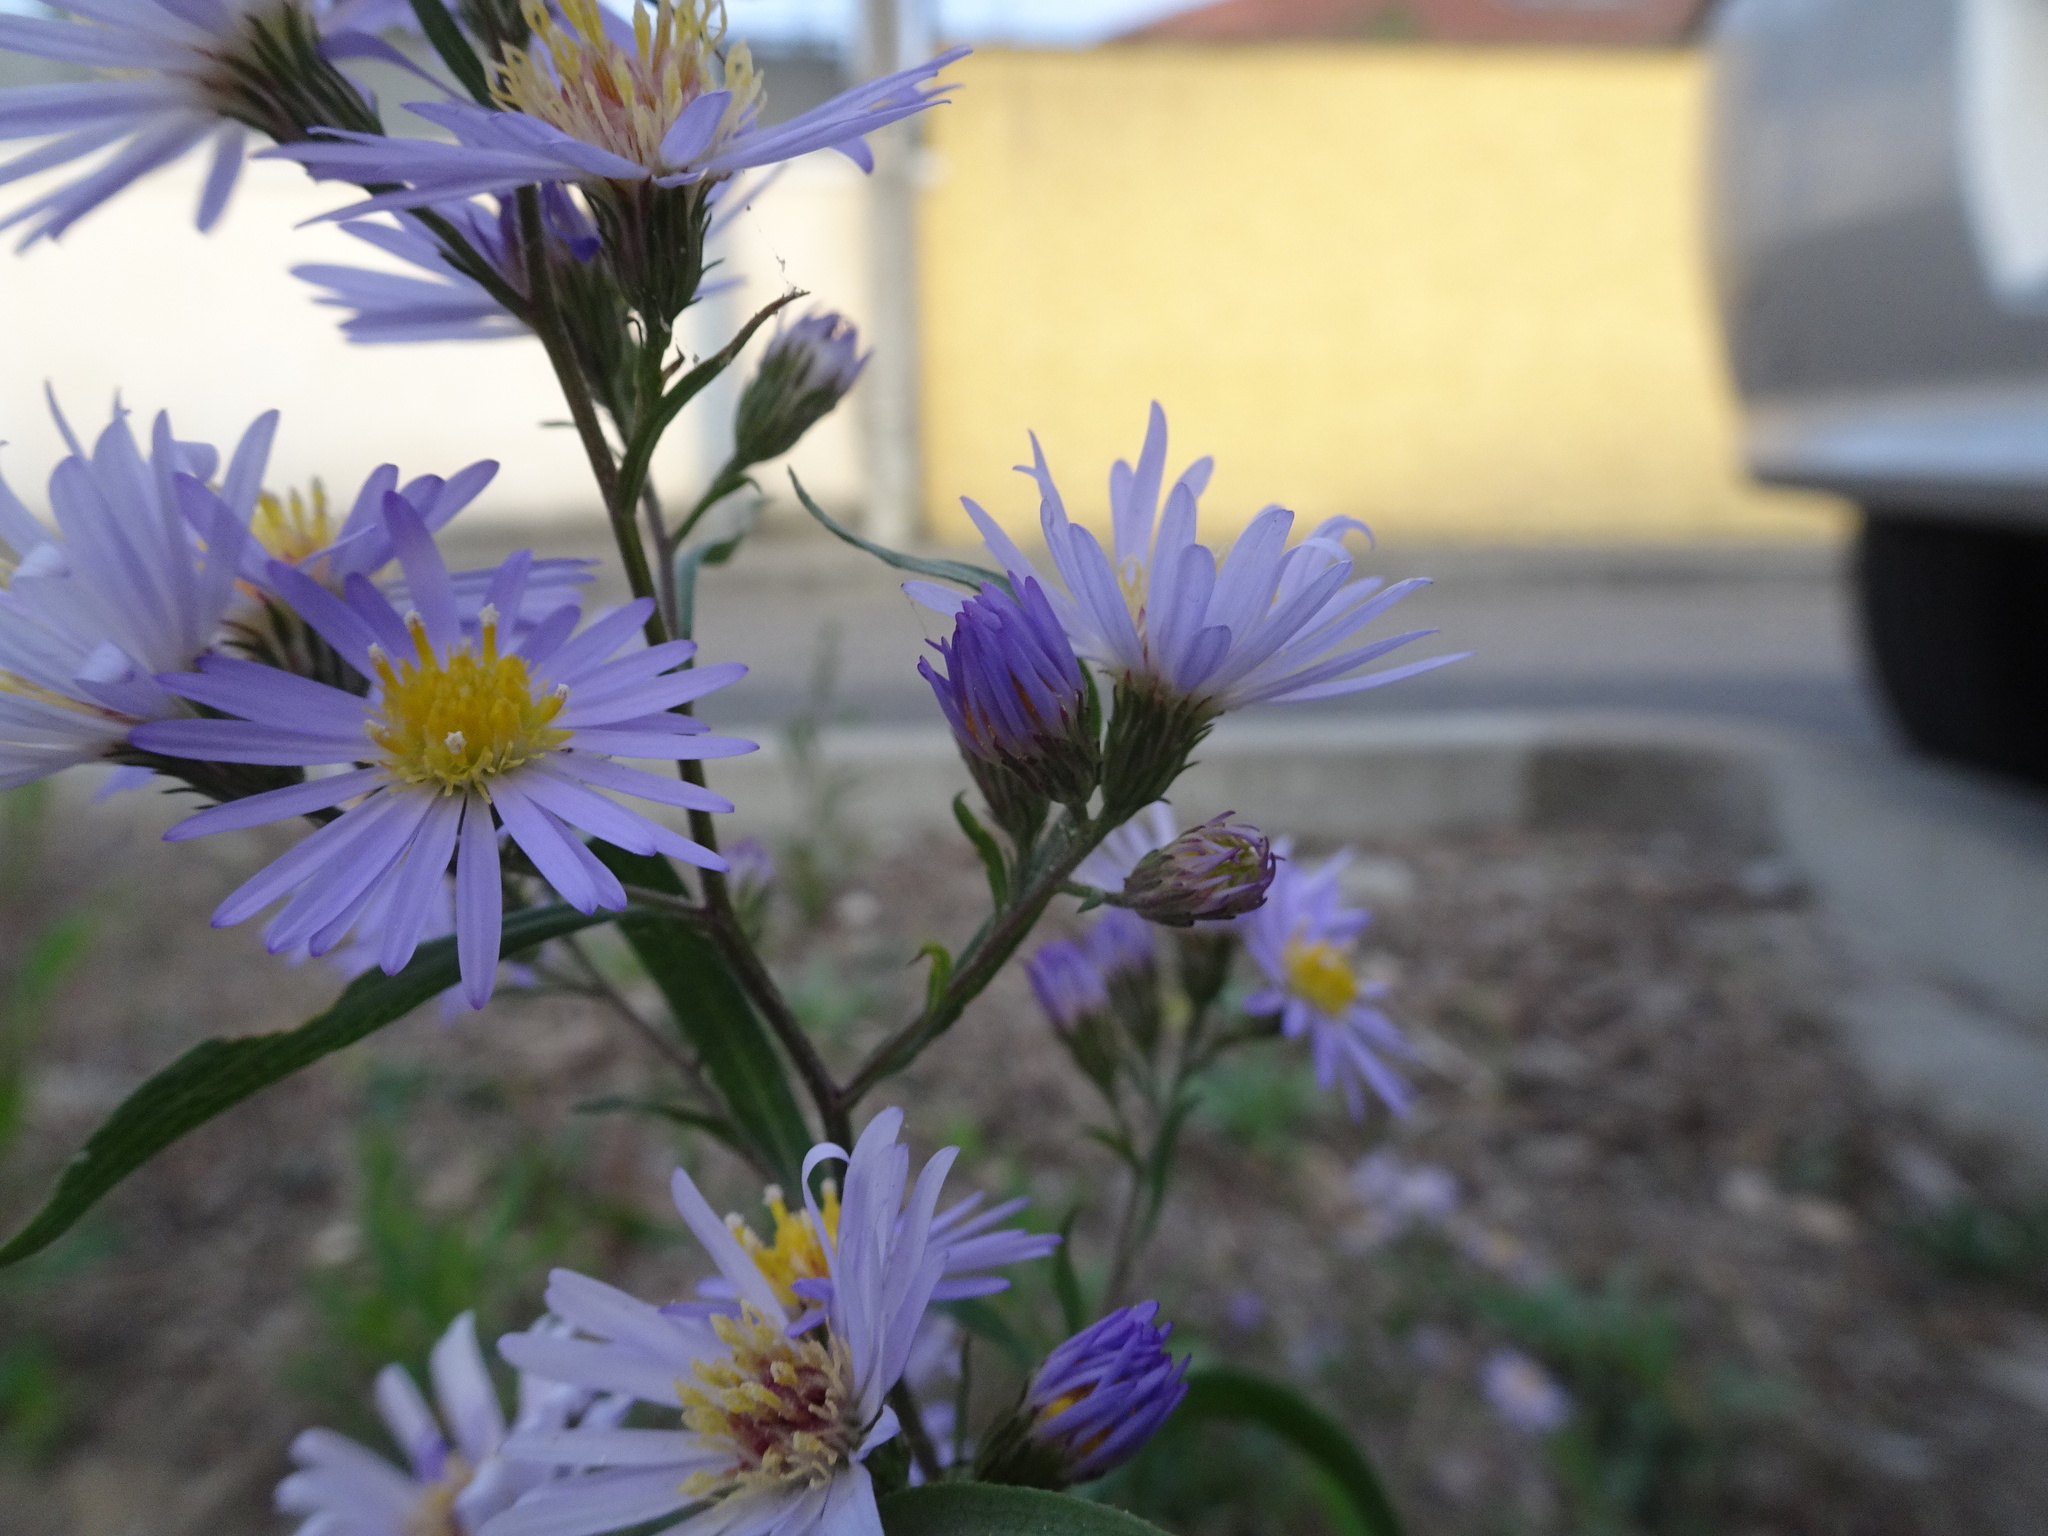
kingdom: Plantae
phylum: Tracheophyta
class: Magnoliopsida
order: Asterales
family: Asteraceae
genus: Symphyotrichum
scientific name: Symphyotrichum novi-belgii
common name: Michaelmas daisy
